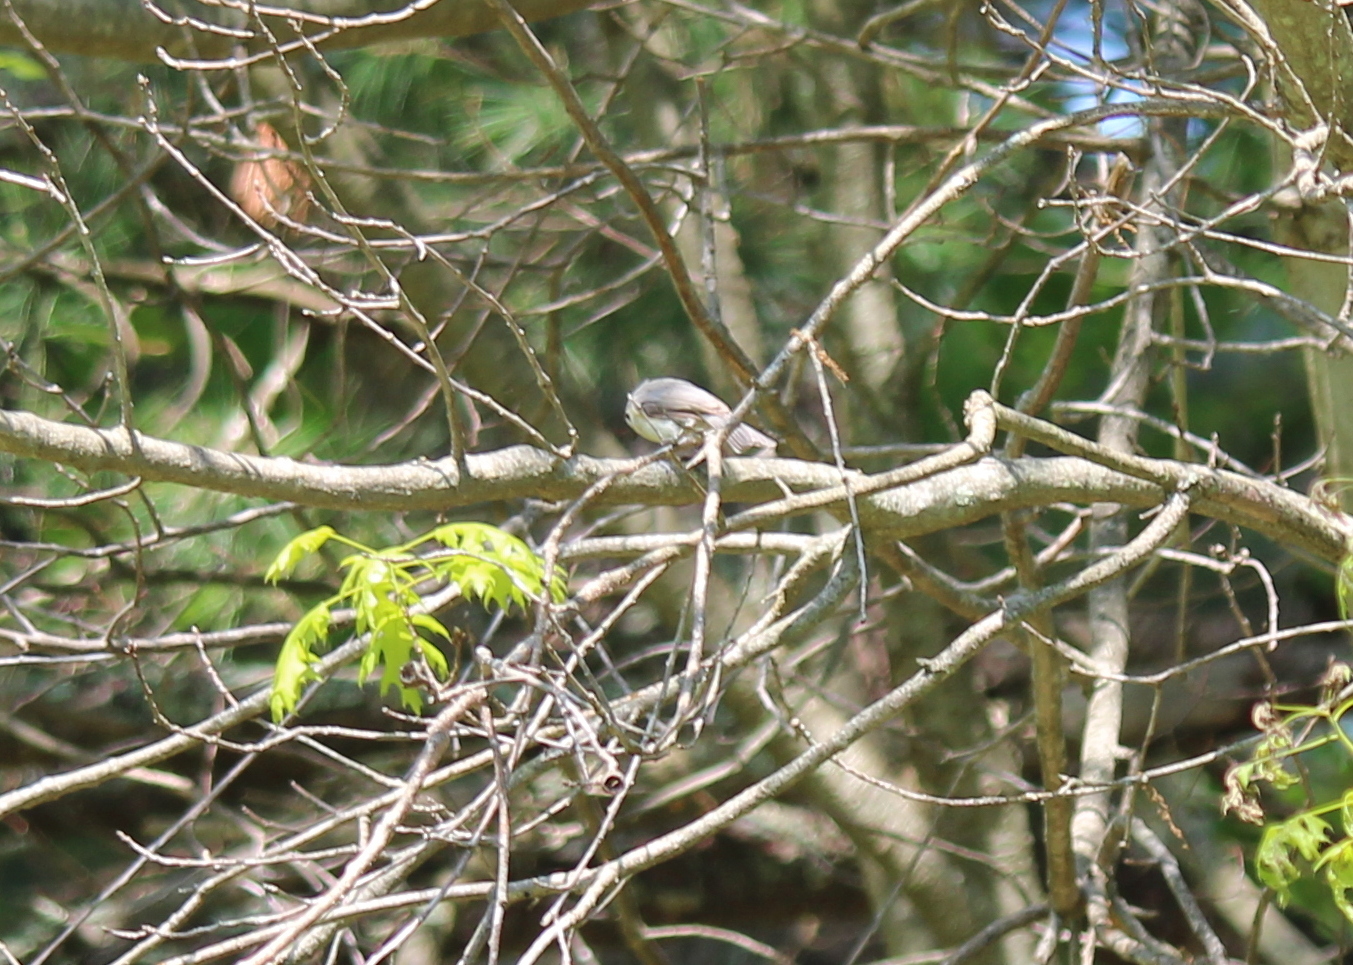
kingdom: Animalia
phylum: Chordata
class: Aves
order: Passeriformes
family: Paridae
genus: Baeolophus
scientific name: Baeolophus bicolor
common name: Tufted titmouse
